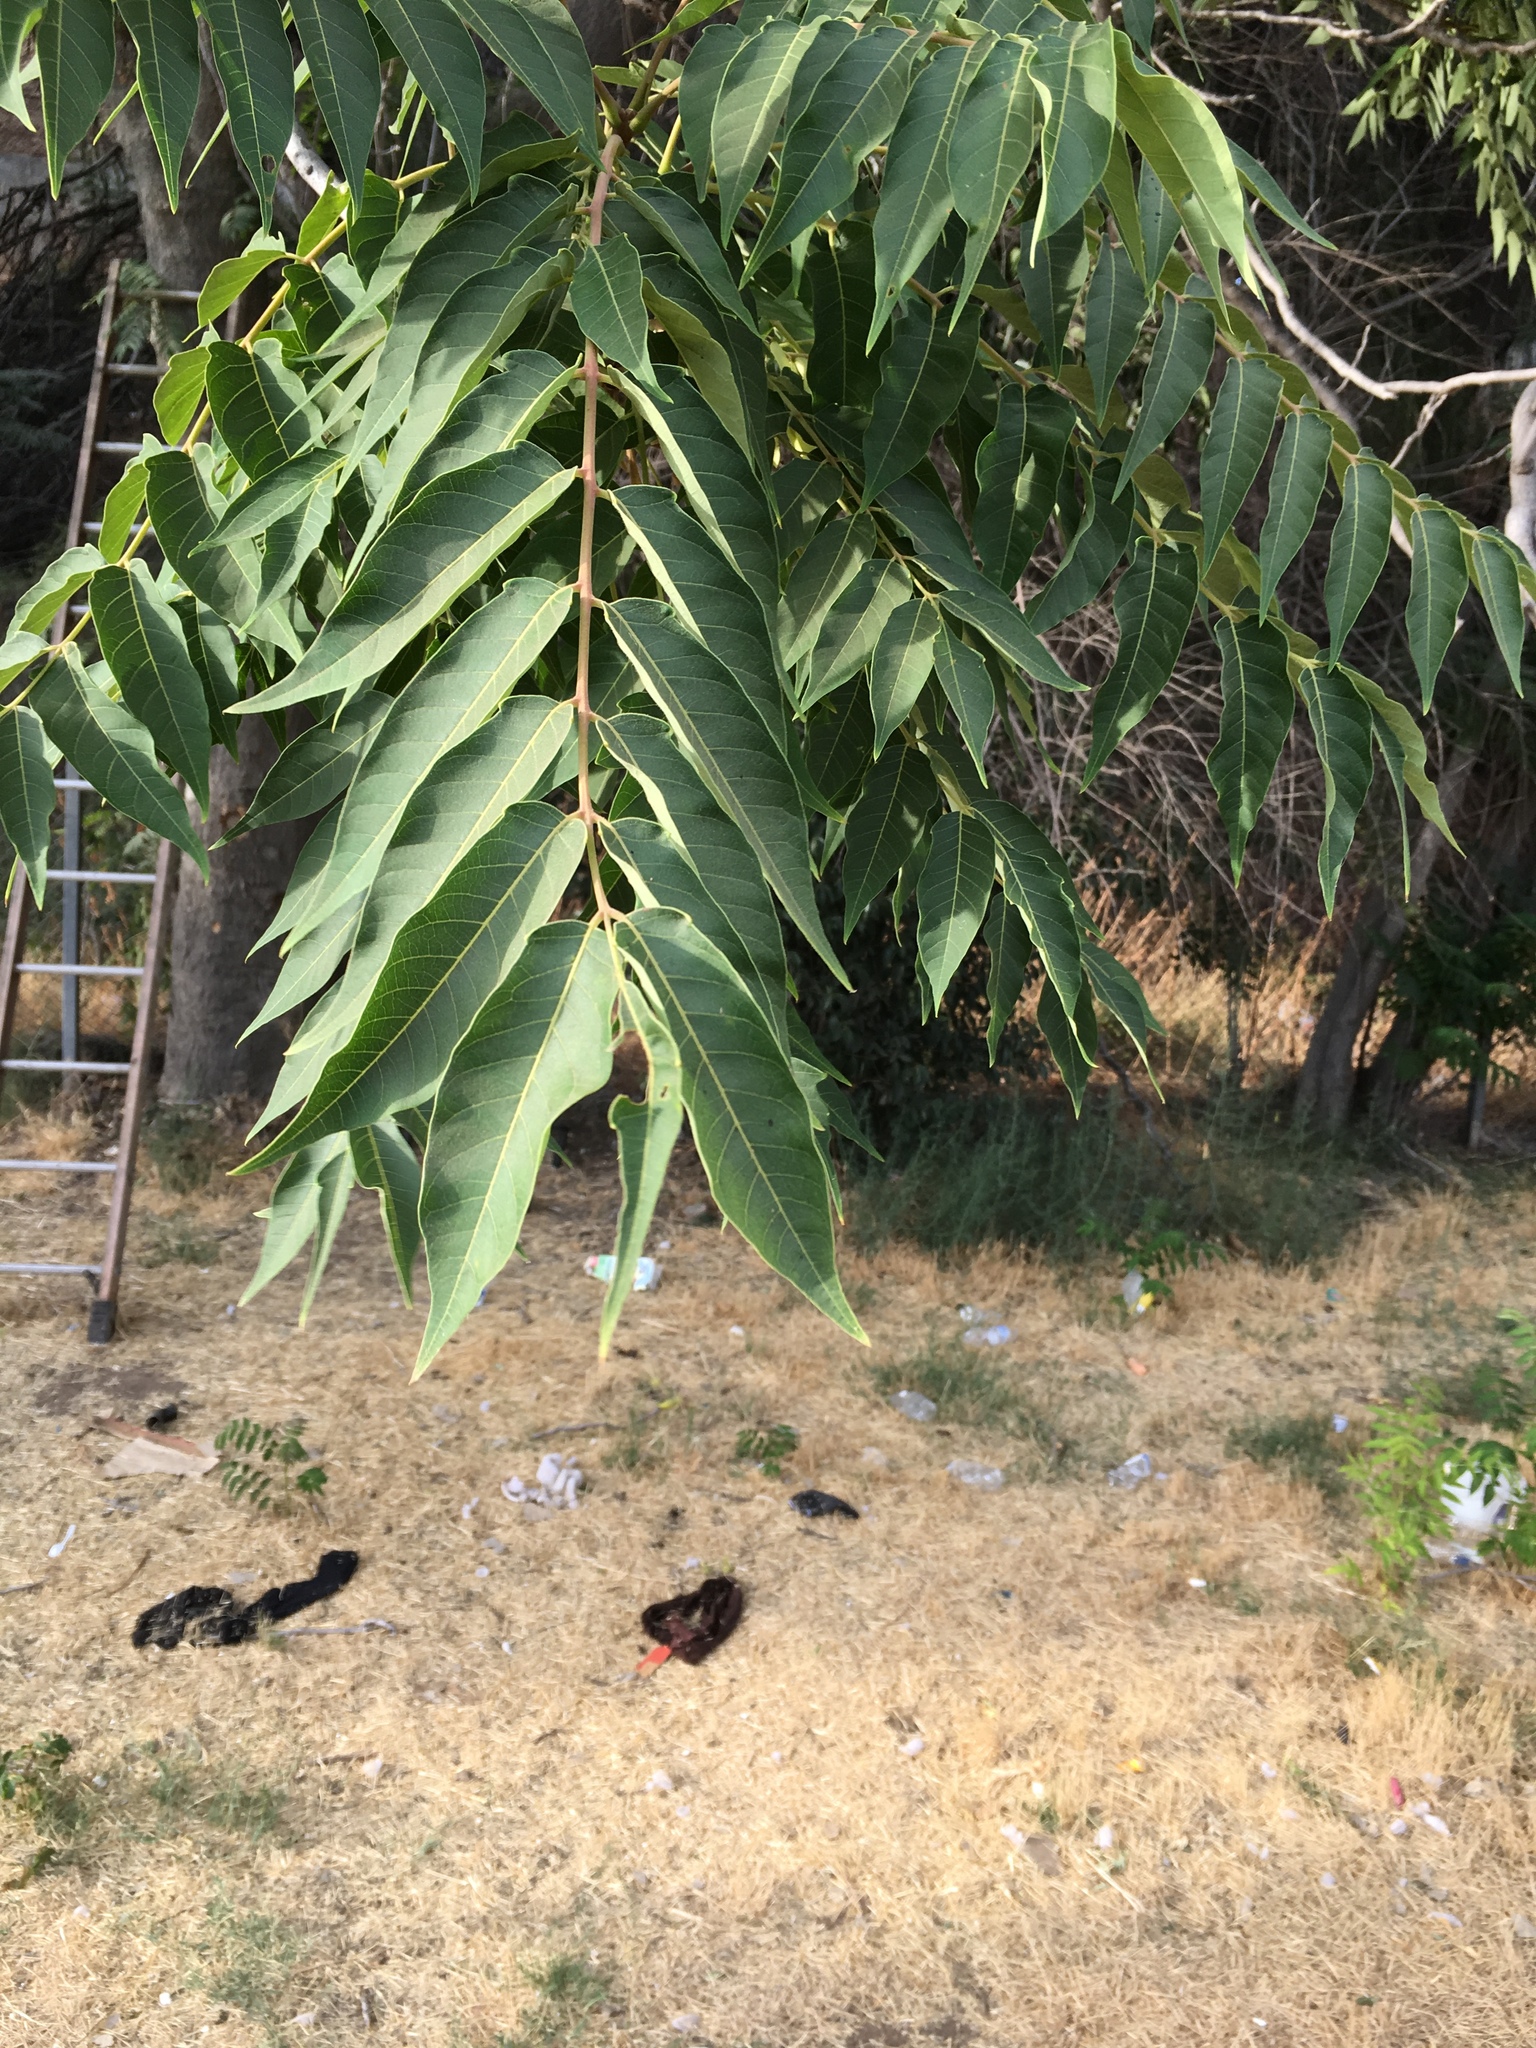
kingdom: Plantae
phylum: Tracheophyta
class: Magnoliopsida
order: Sapindales
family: Simaroubaceae
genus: Ailanthus
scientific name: Ailanthus altissima
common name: Tree-of-heaven
